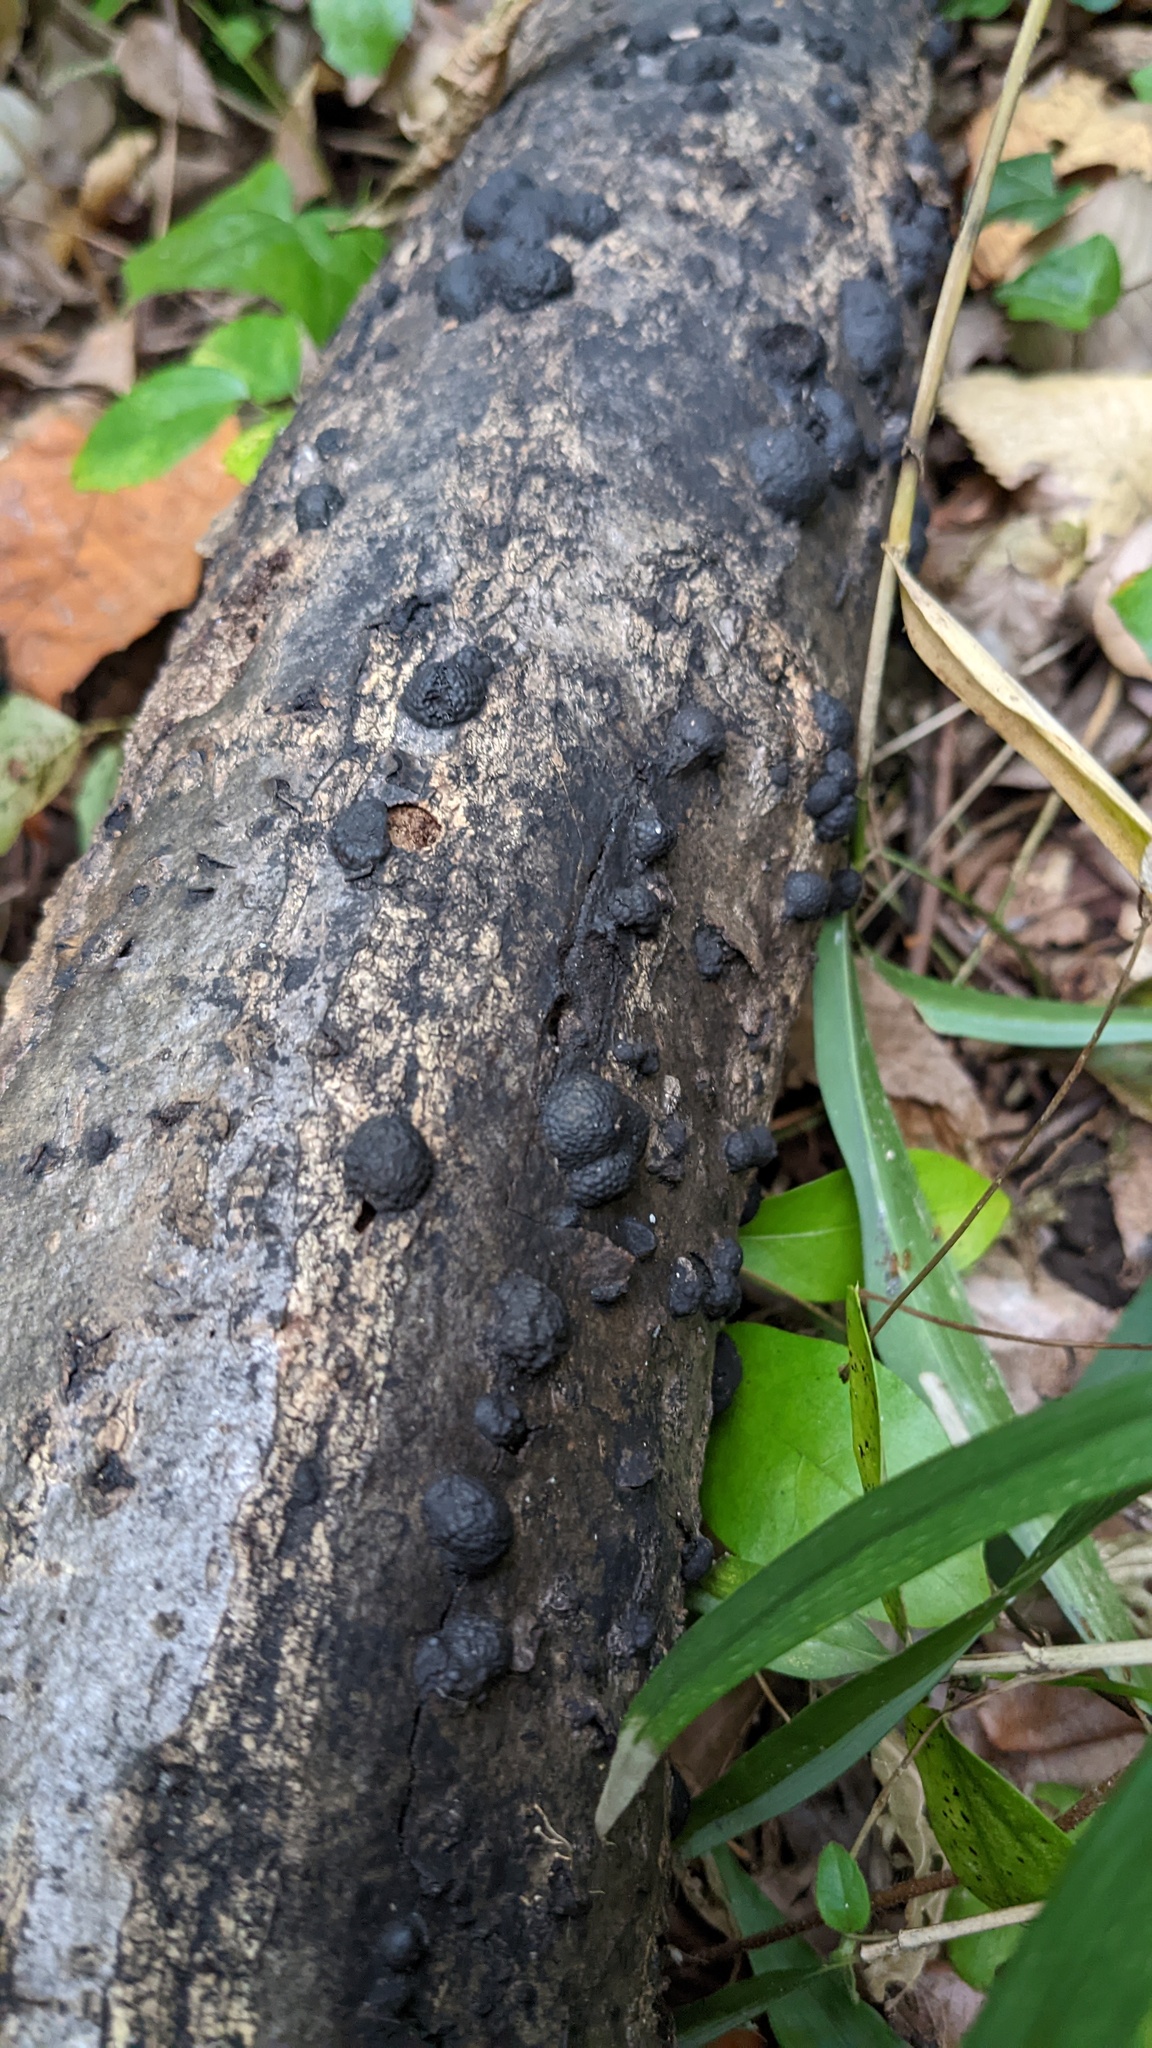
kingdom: Fungi
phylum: Ascomycota
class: Sordariomycetes
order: Xylariales
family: Hypoxylaceae
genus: Annulohypoxylon
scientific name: Annulohypoxylon truncatum
